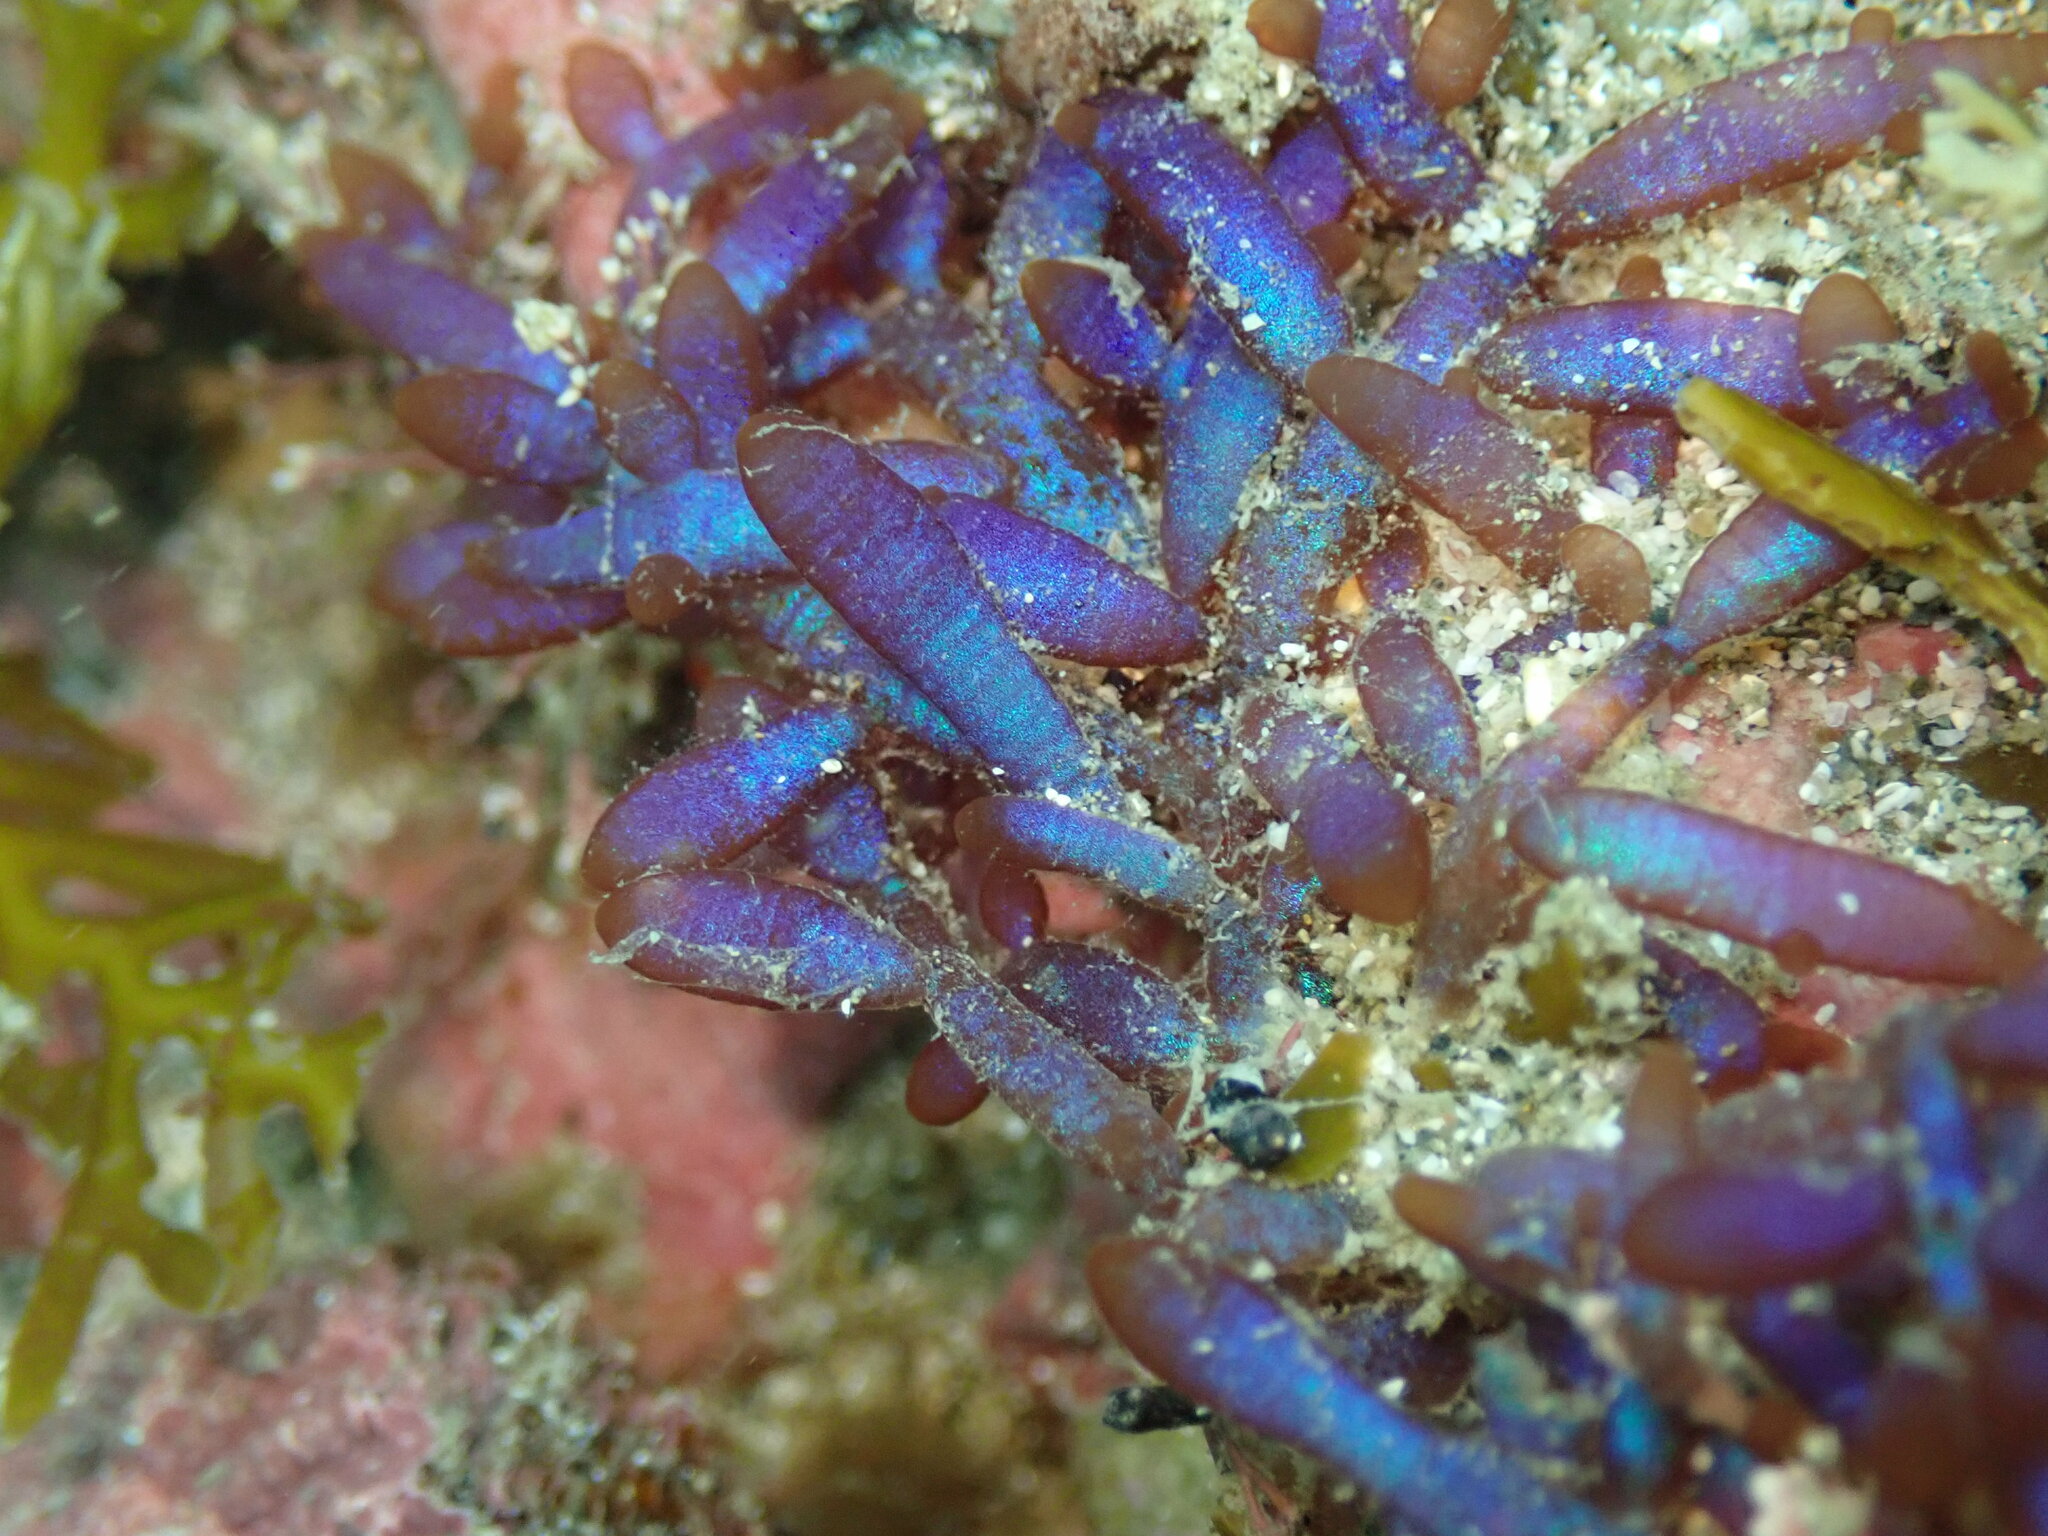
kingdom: Plantae
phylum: Rhodophyta
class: Florideophyceae
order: Rhodymeniales
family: Champiaceae
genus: Champia
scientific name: Champia laingii
